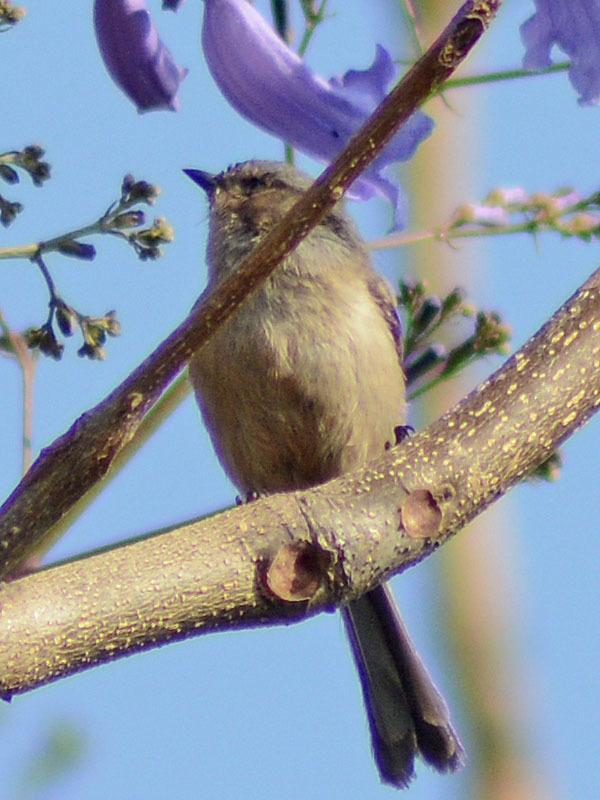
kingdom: Animalia
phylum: Chordata
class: Aves
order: Passeriformes
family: Aegithalidae
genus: Psaltriparus
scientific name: Psaltriparus minimus
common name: American bushtit
